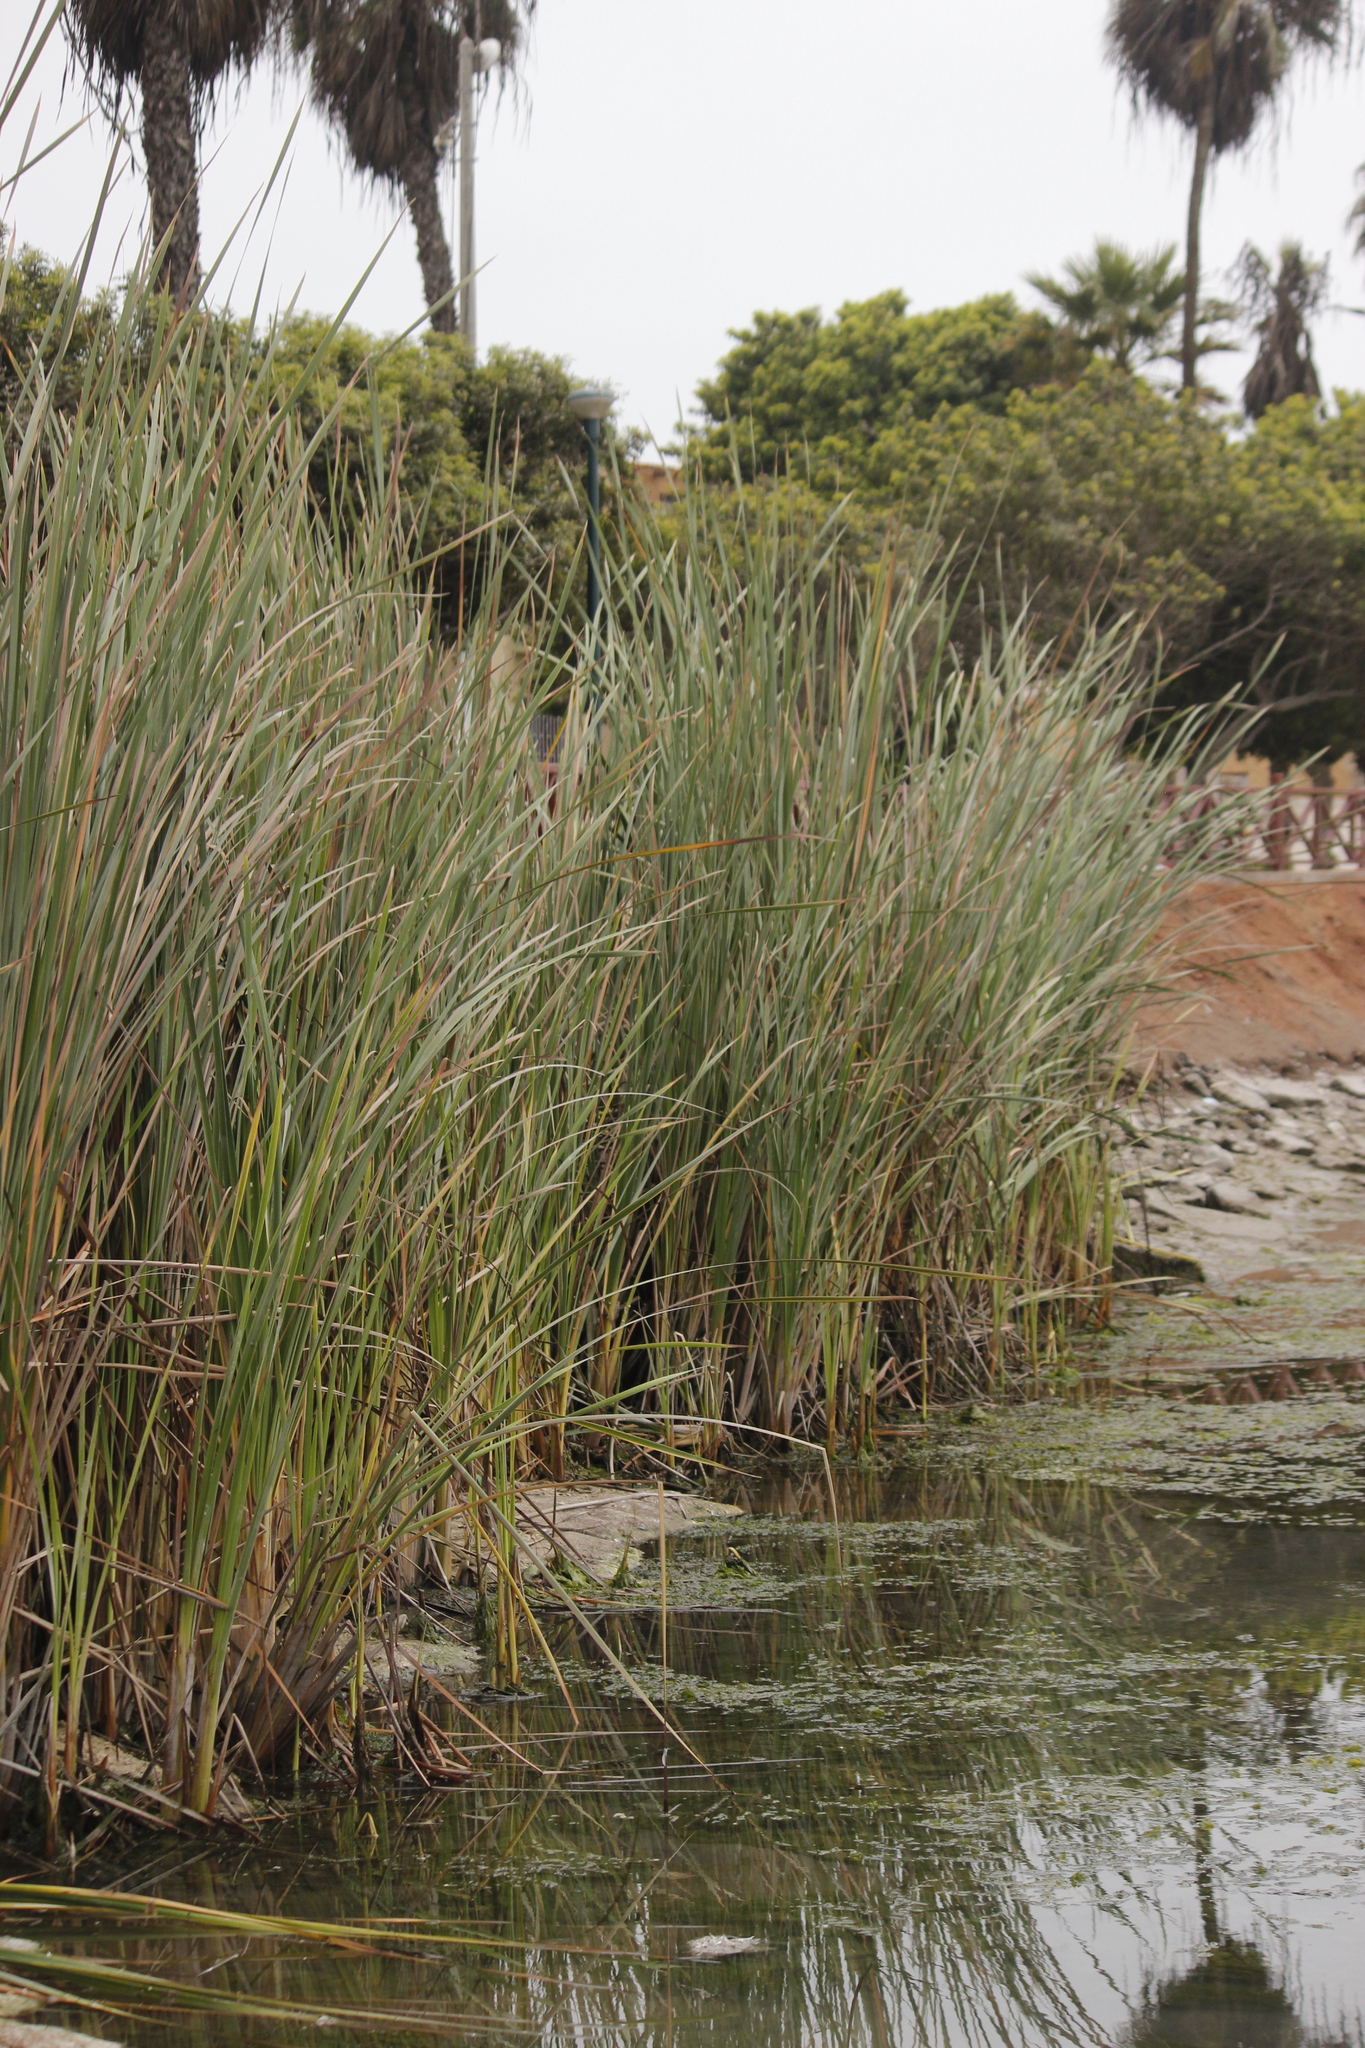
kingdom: Plantae
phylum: Tracheophyta
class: Liliopsida
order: Poales
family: Typhaceae
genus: Typha
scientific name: Typha domingensis
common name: Southern cattail
